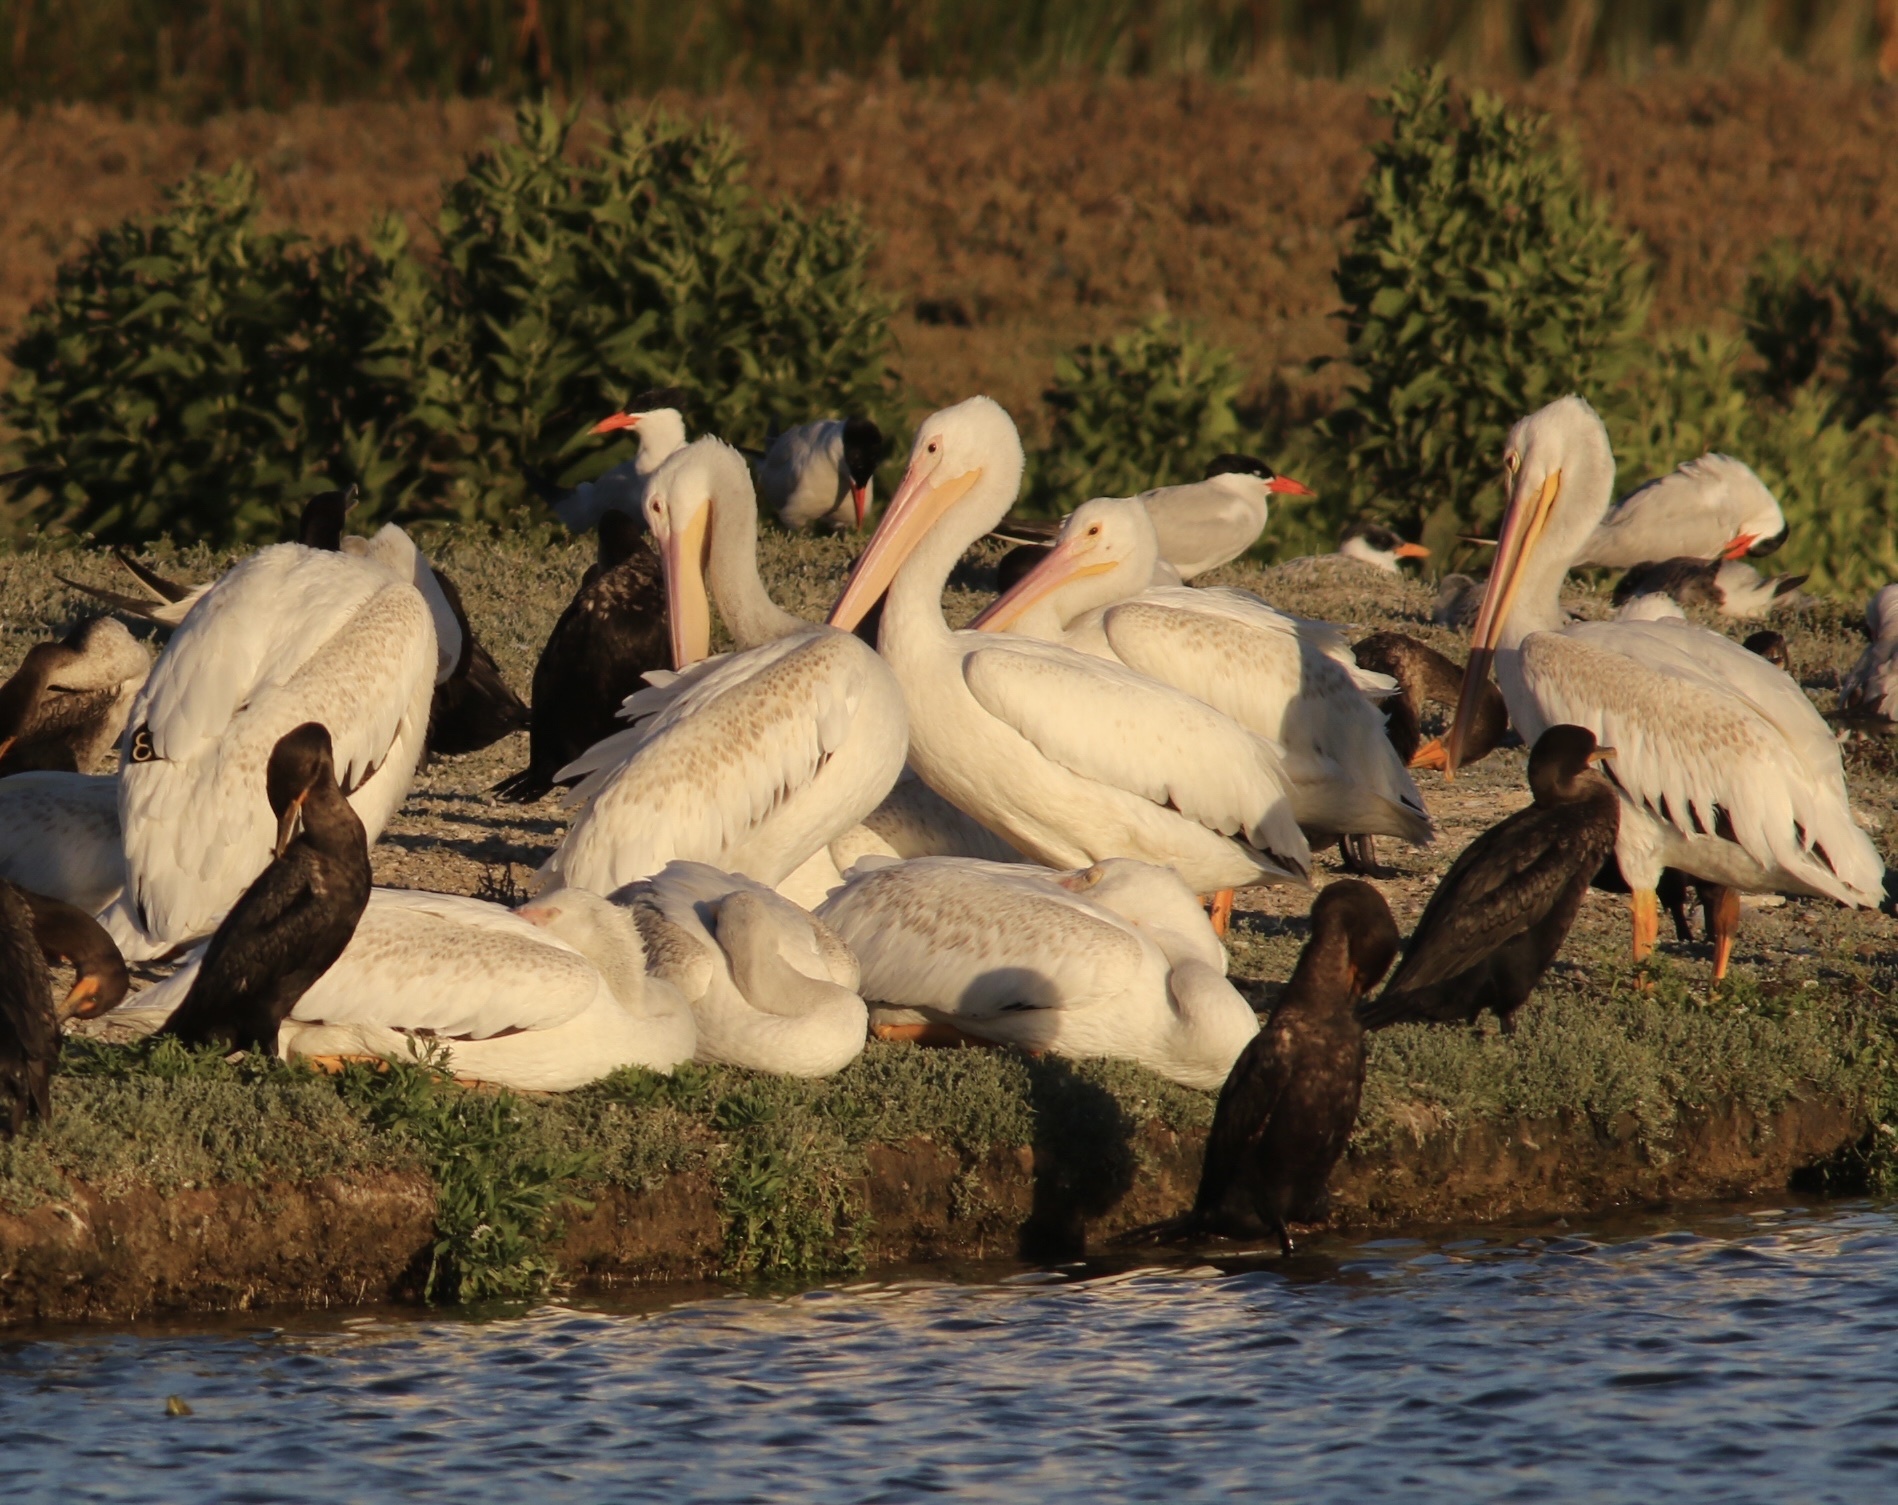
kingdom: Animalia
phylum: Chordata
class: Aves
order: Pelecaniformes
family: Pelecanidae
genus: Pelecanus
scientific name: Pelecanus erythrorhynchos
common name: American white pelican
